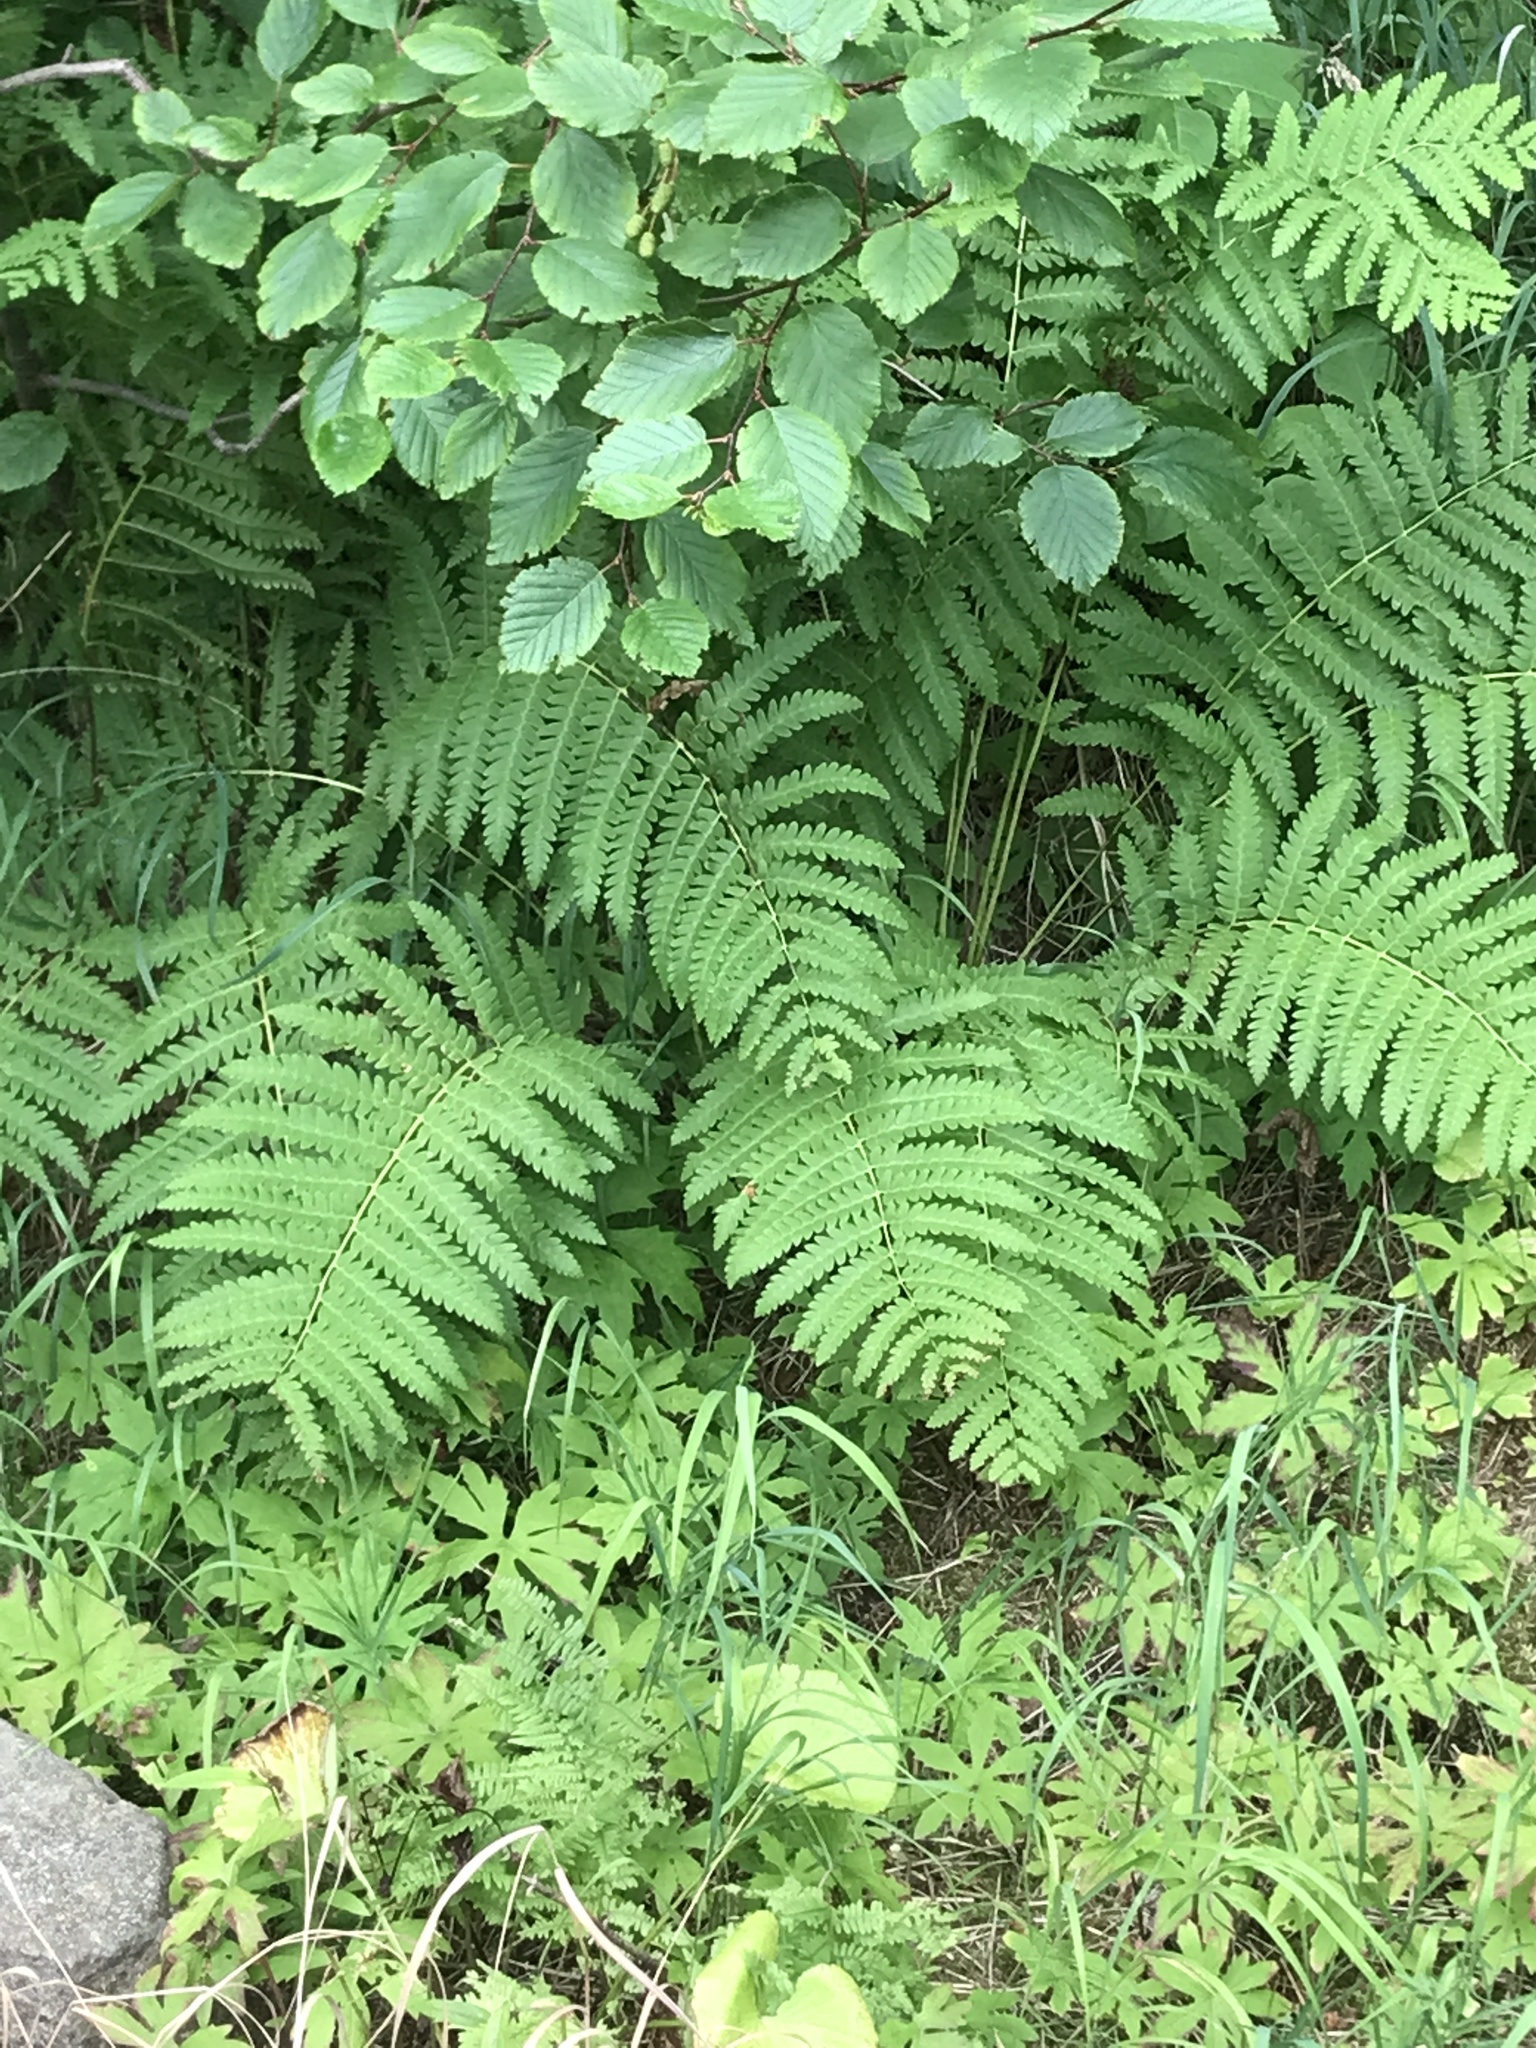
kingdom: Plantae
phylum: Tracheophyta
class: Polypodiopsida
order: Osmundales
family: Osmundaceae
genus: Claytosmunda
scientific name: Claytosmunda claytoniana
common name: Clayton's fern
